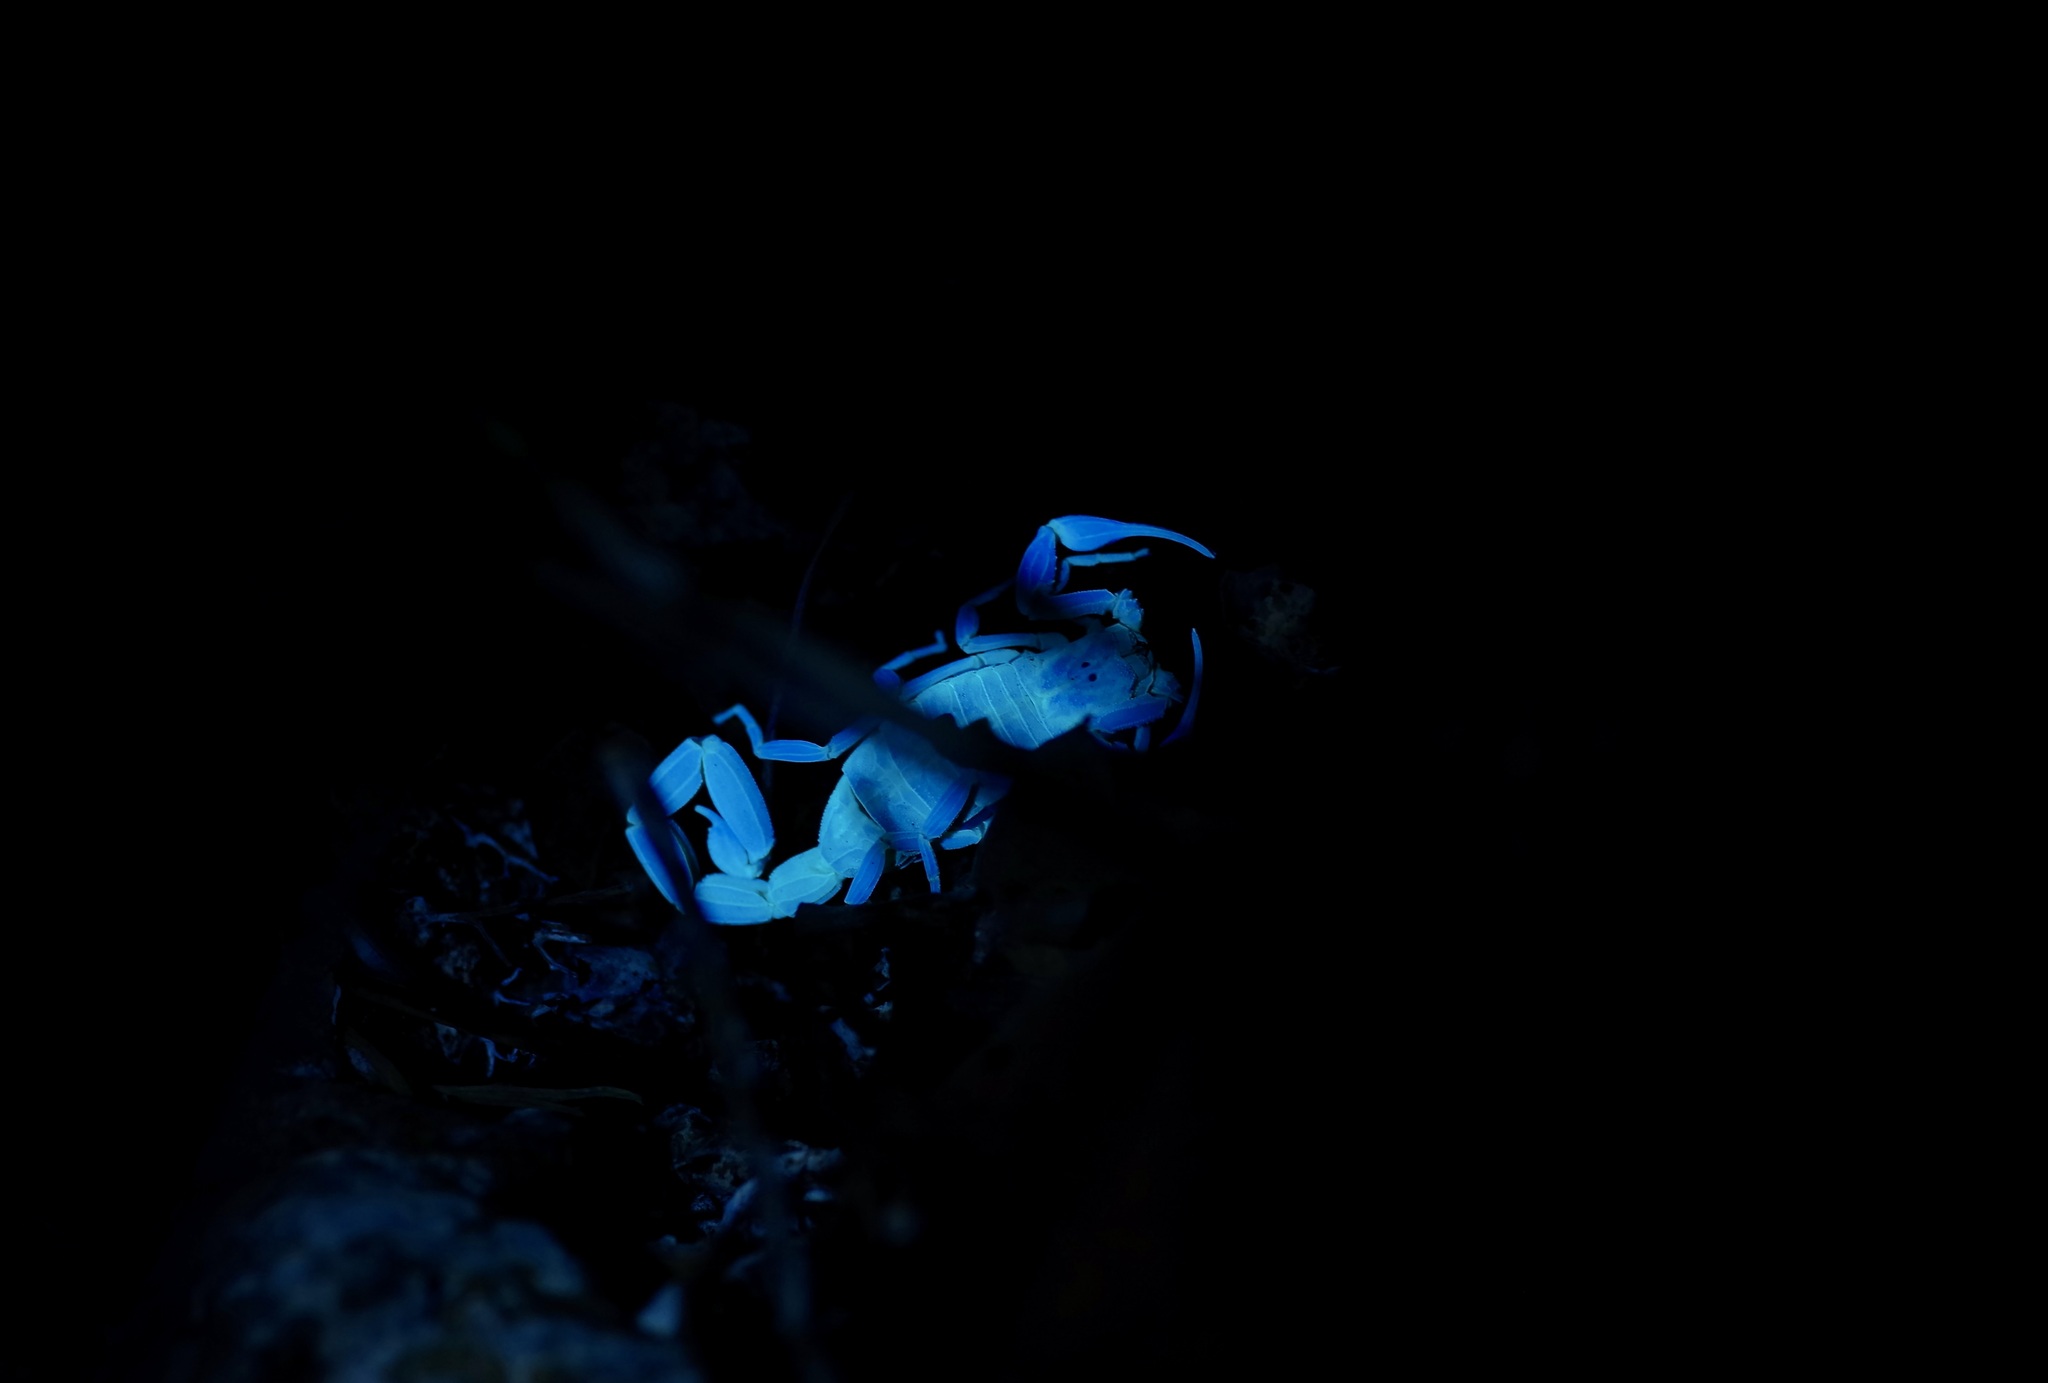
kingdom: Animalia
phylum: Arthropoda
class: Arachnida
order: Scorpiones
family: Buthidae
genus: Centruroides
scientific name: Centruroides vittatus
